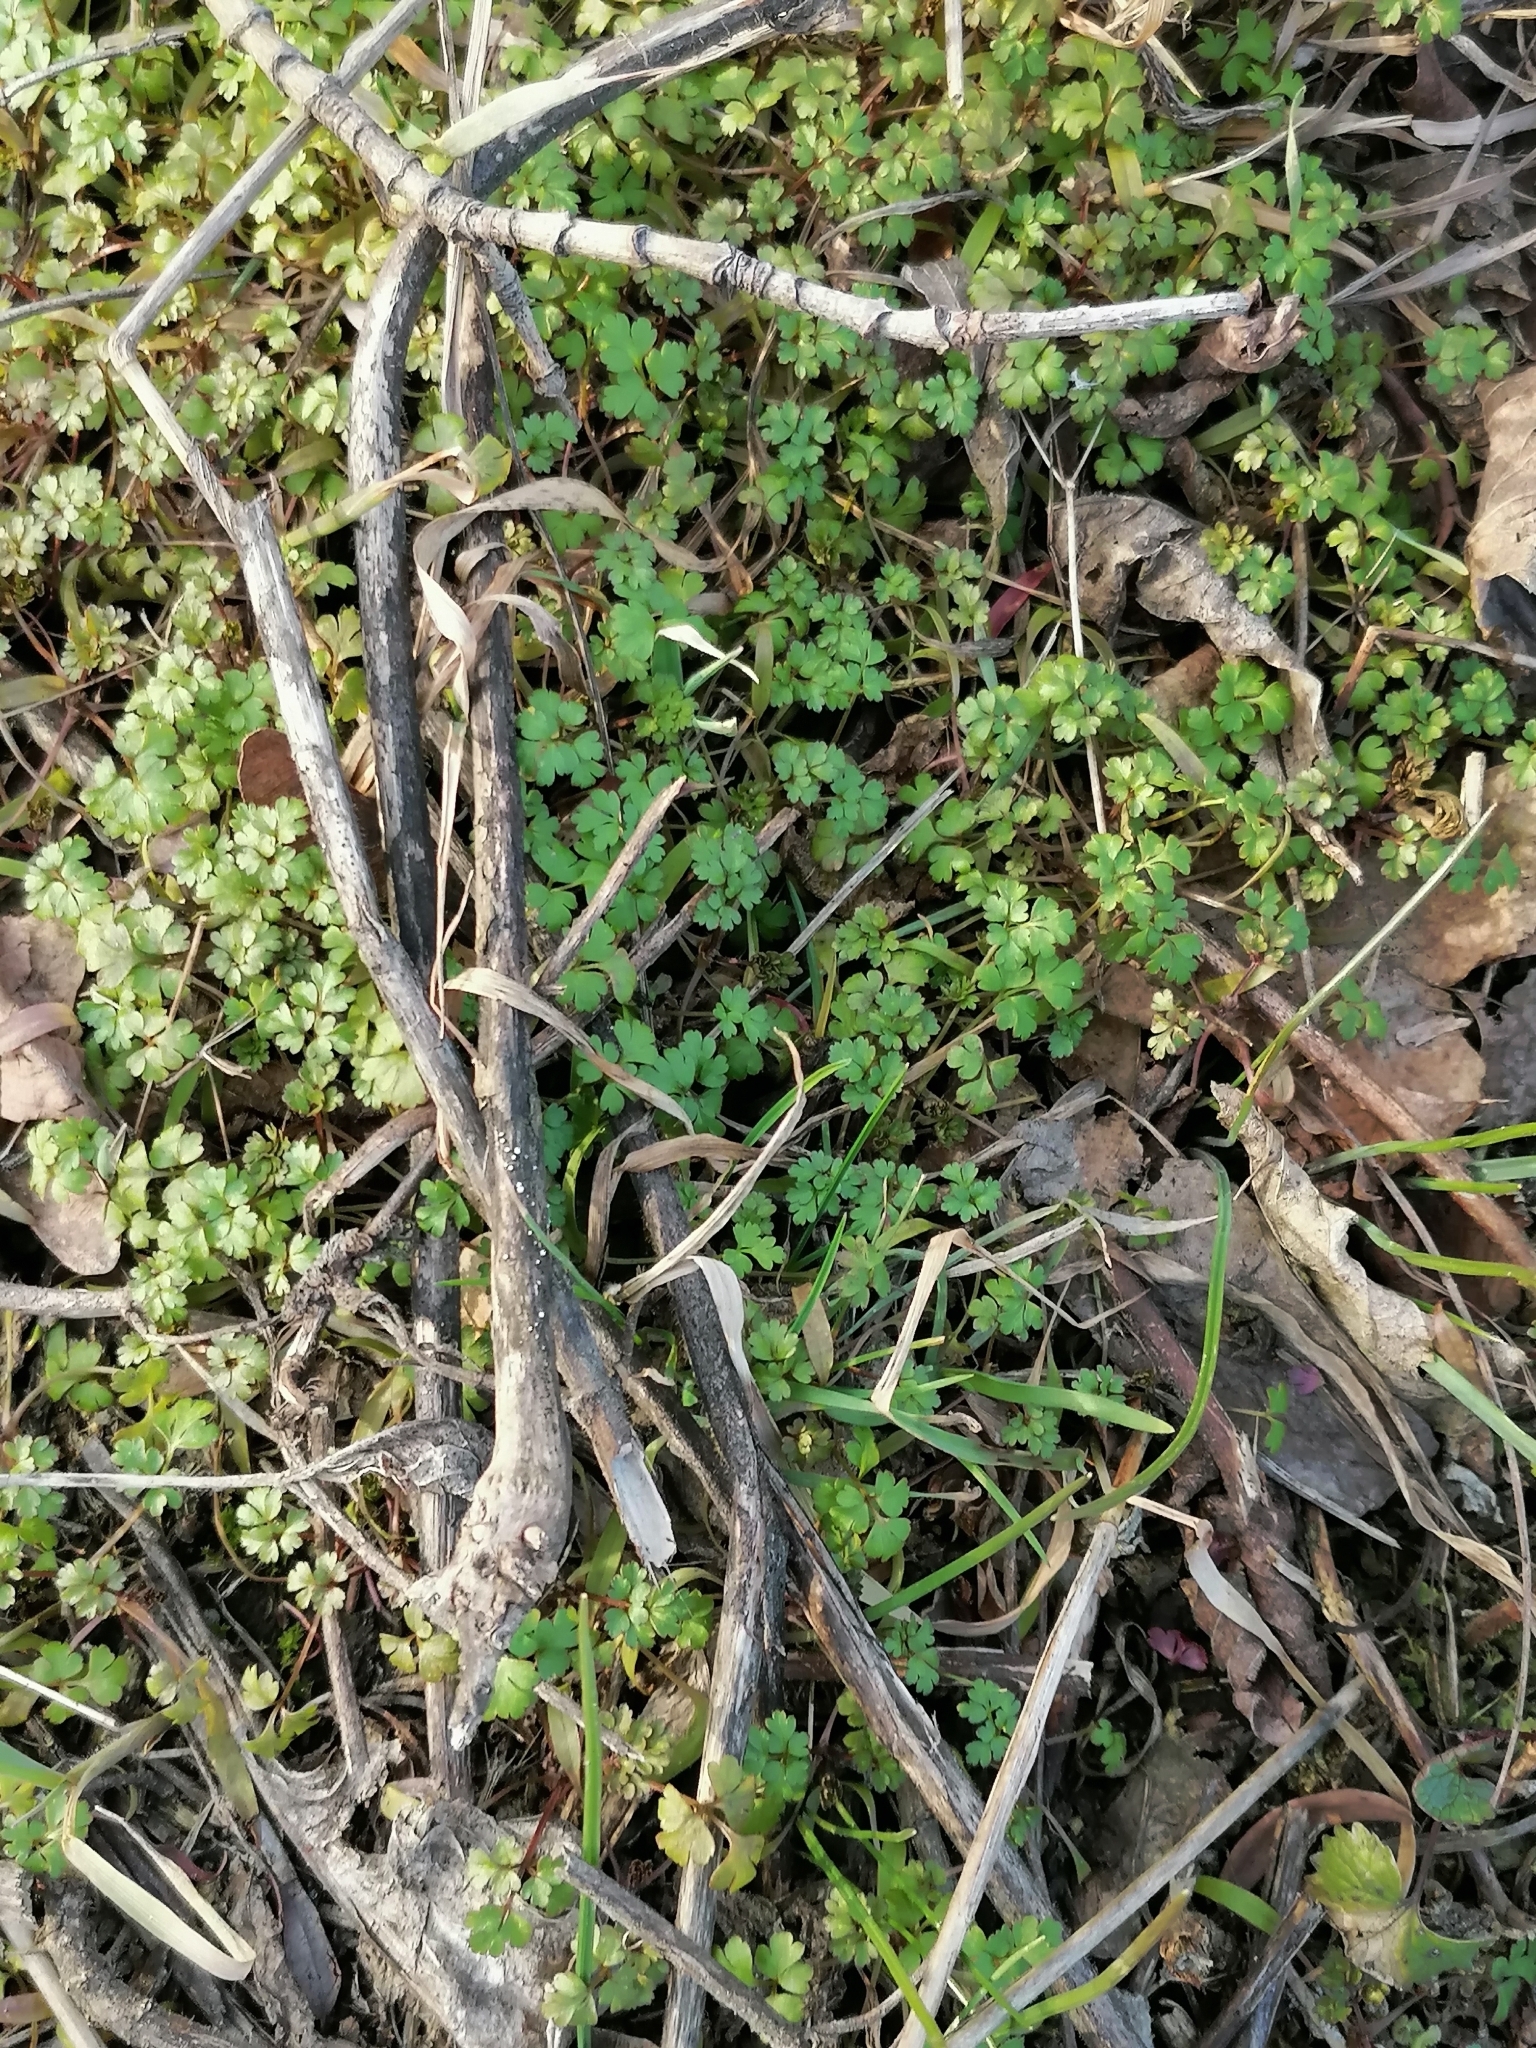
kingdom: Plantae
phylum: Tracheophyta
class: Magnoliopsida
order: Dipsacales
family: Viburnaceae
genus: Adoxa
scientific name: Adoxa moschatellina
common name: Moschatel
